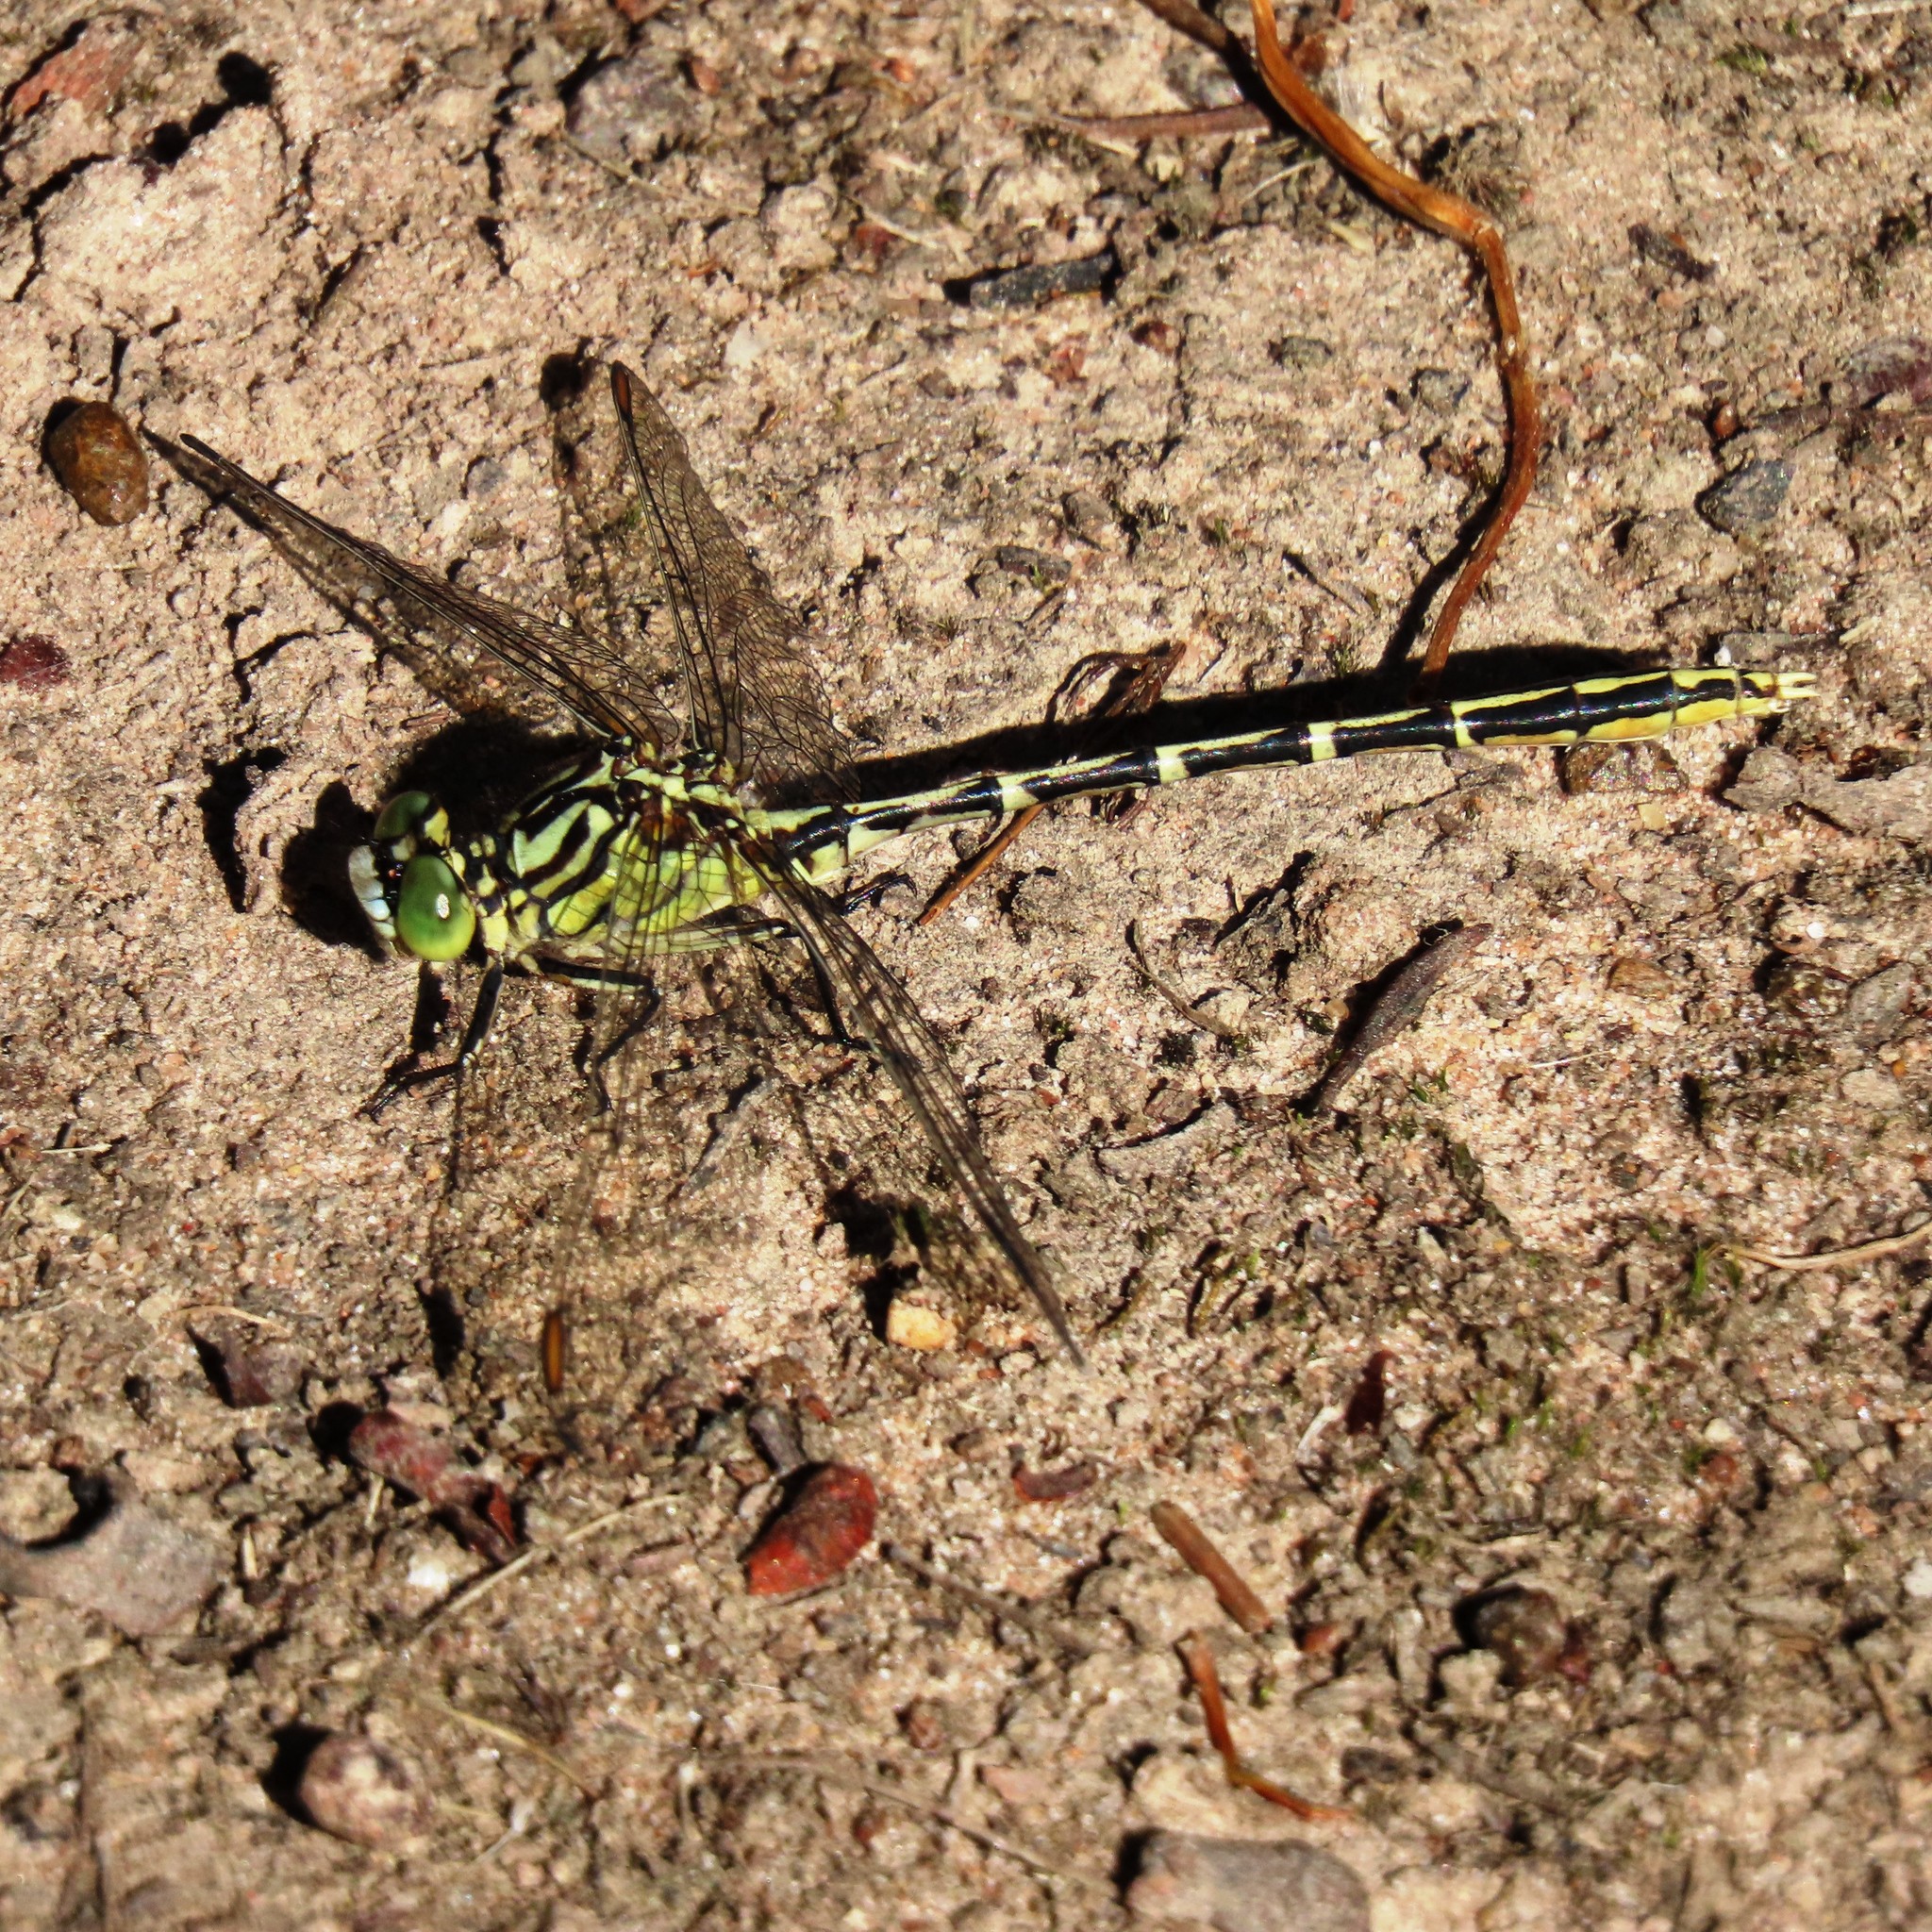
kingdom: Animalia
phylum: Arthropoda
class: Insecta
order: Odonata
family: Gomphidae
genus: Austrogomphus
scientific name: Austrogomphus guerini
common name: Yellow-striped hunter
